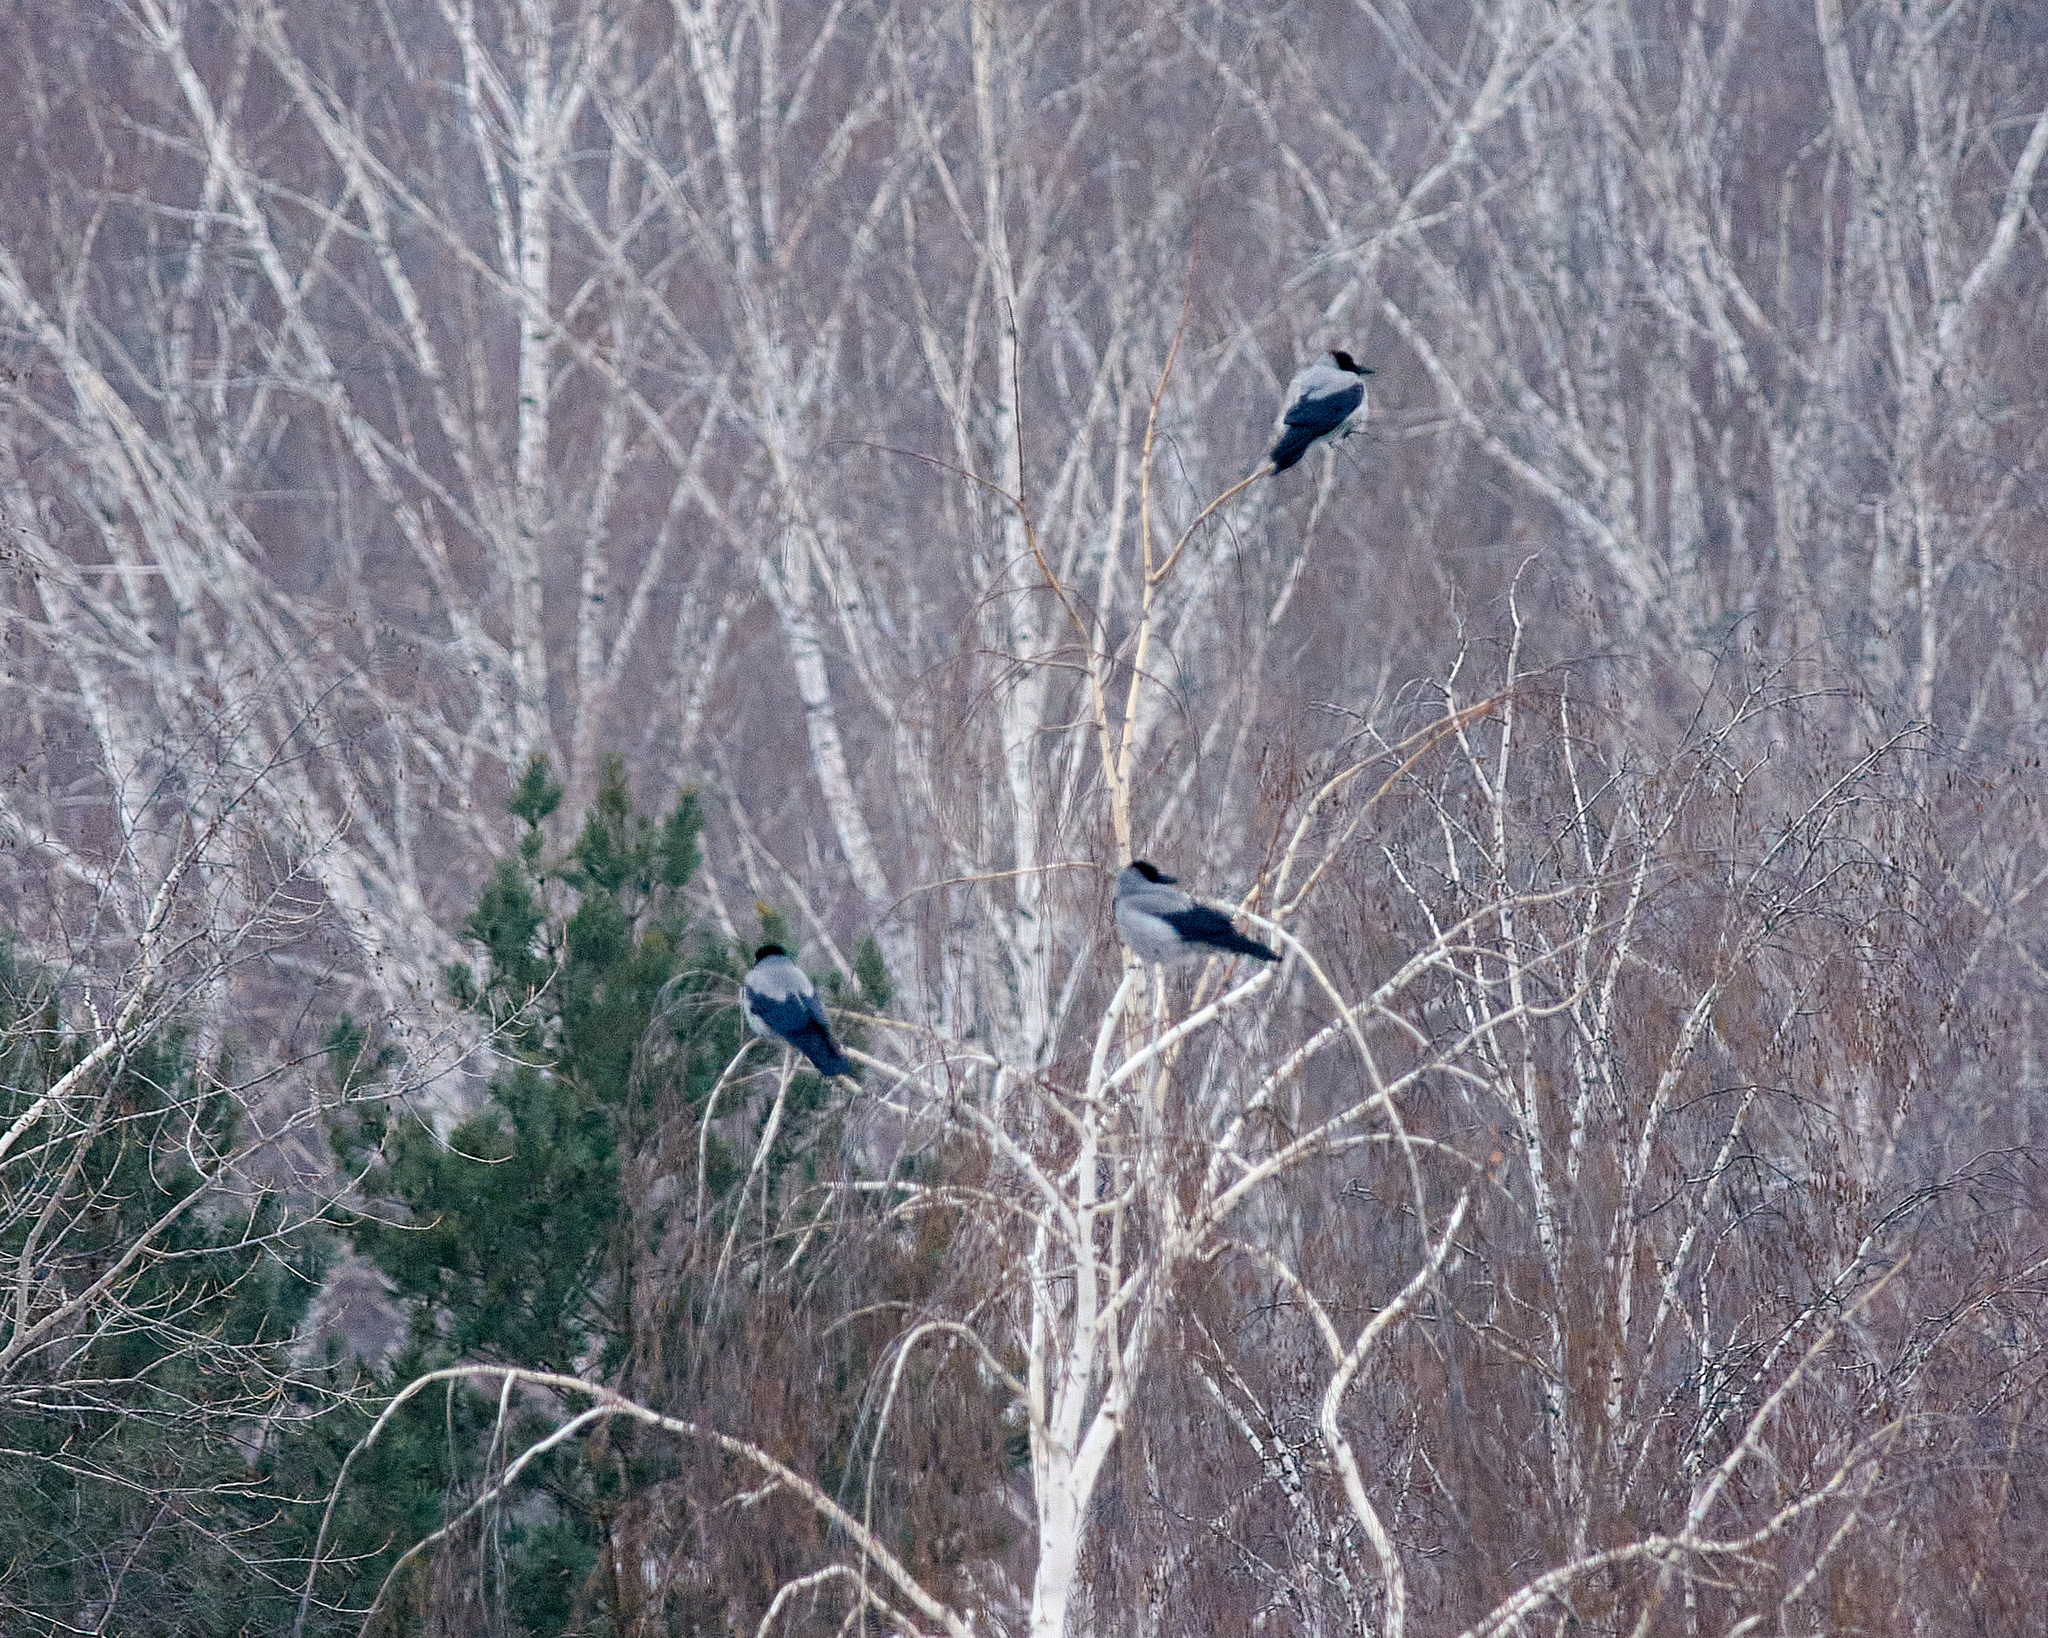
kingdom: Animalia
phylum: Chordata
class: Aves
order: Passeriformes
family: Corvidae
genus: Corvus
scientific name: Corvus cornix
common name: Hooded crow
